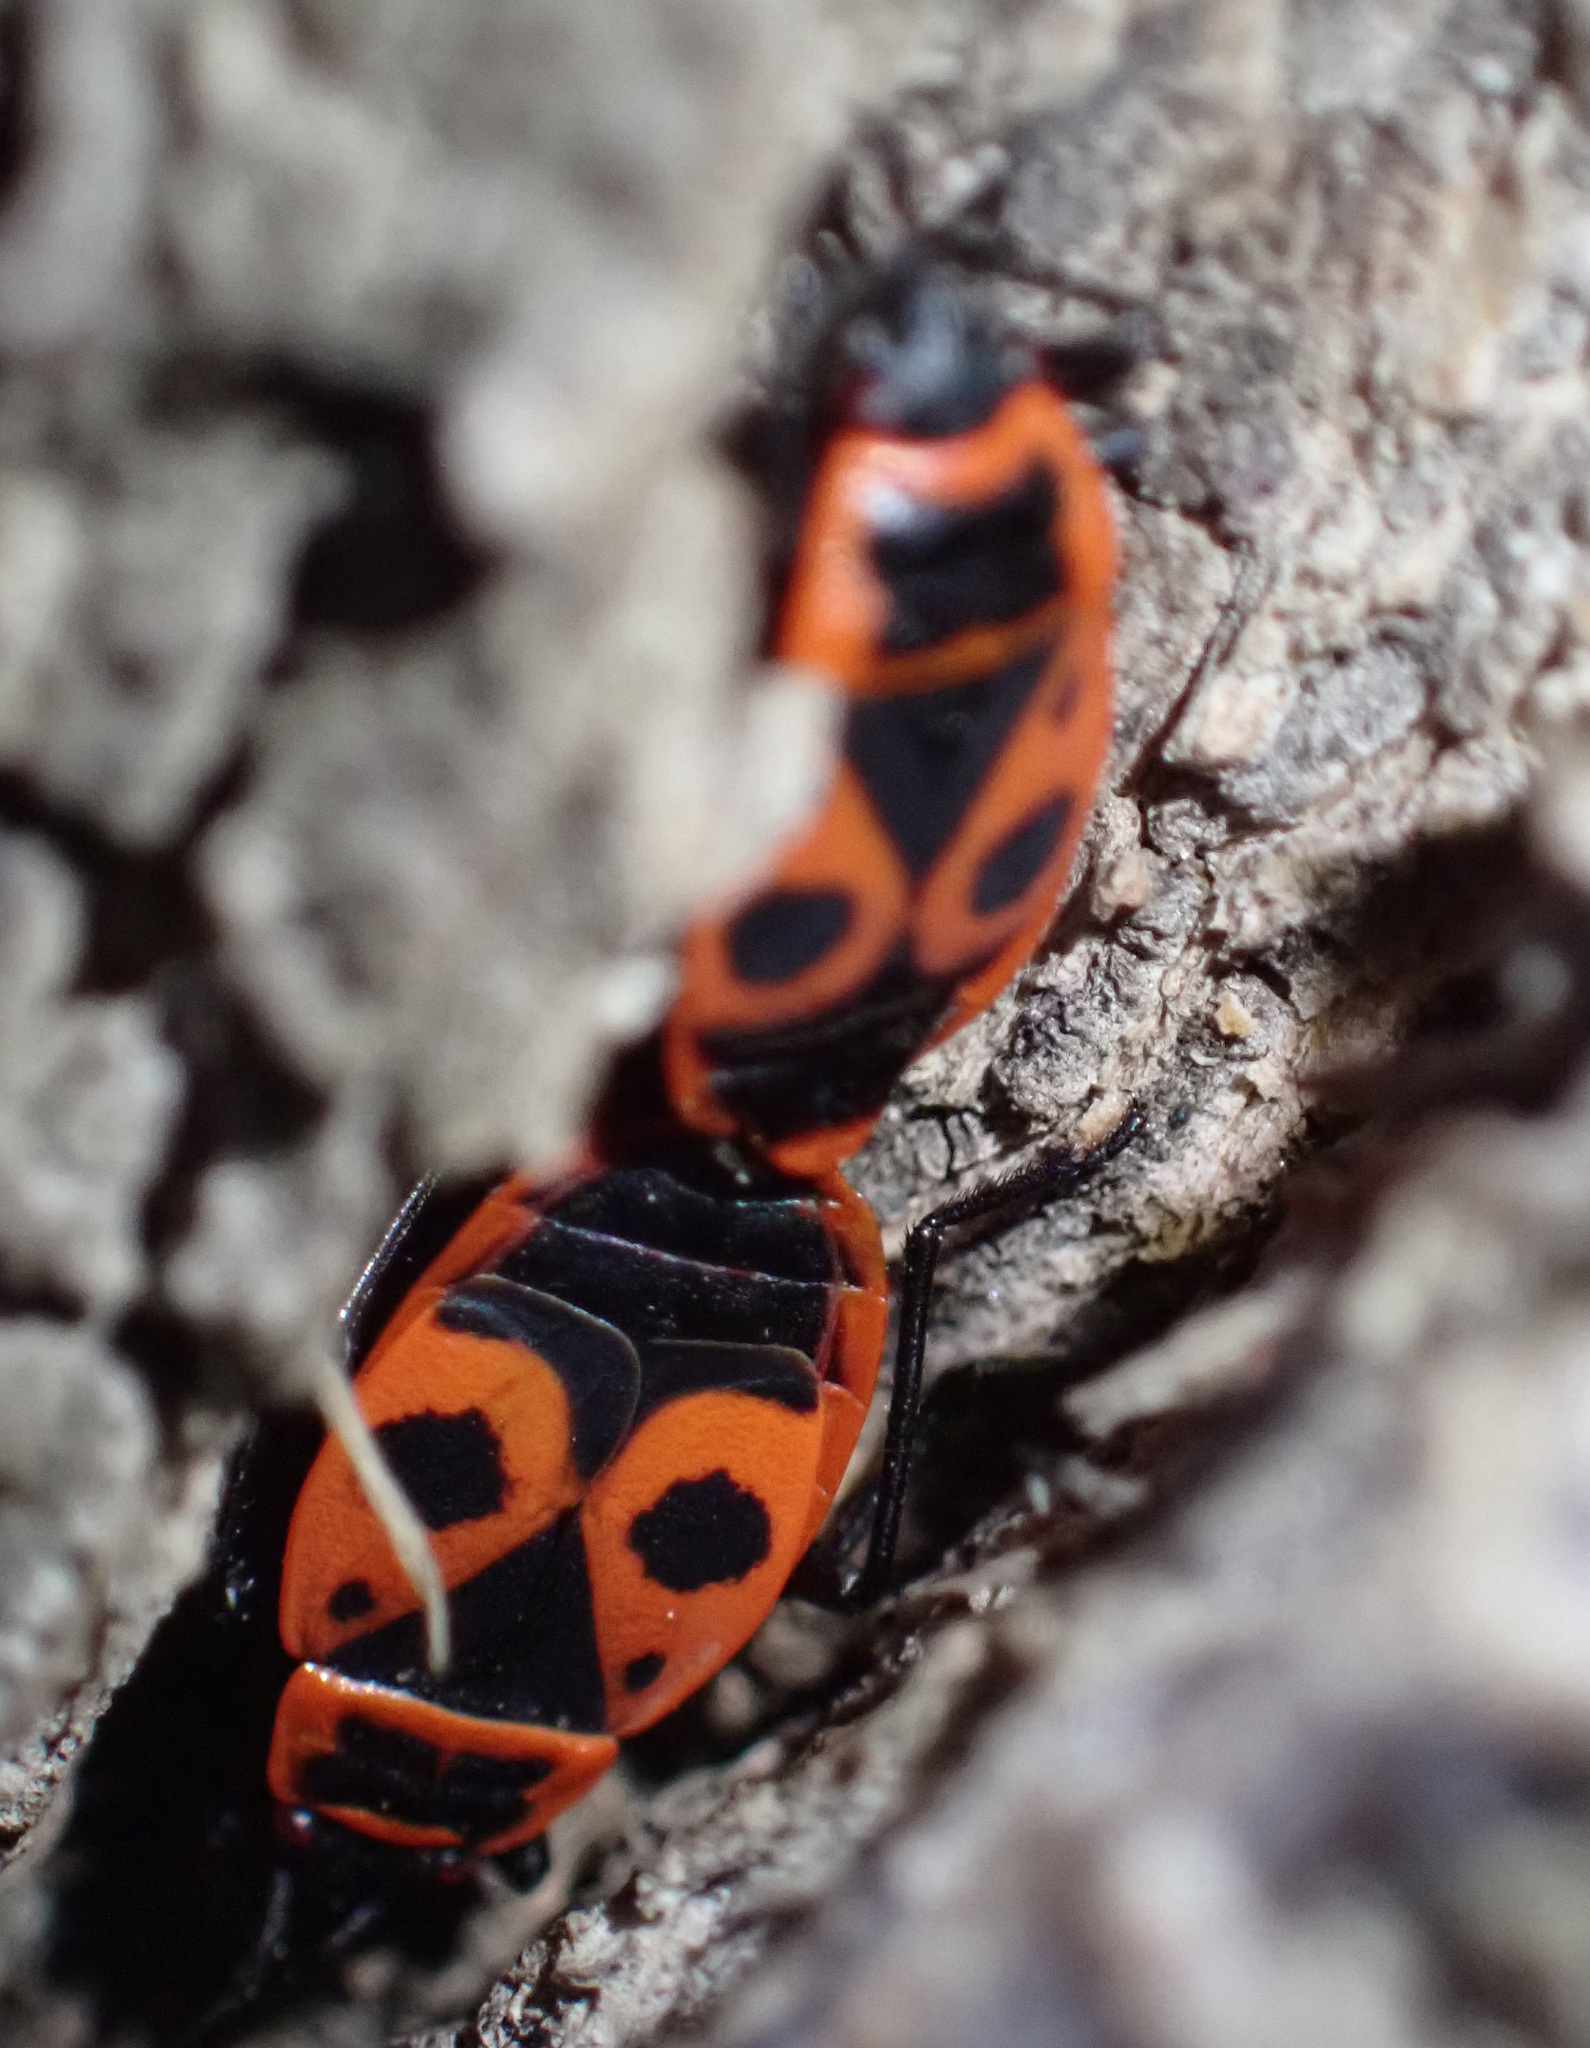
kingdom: Animalia
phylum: Arthropoda
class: Insecta
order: Hemiptera
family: Pyrrhocoridae
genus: Pyrrhocoris
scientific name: Pyrrhocoris apterus
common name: Firebug
